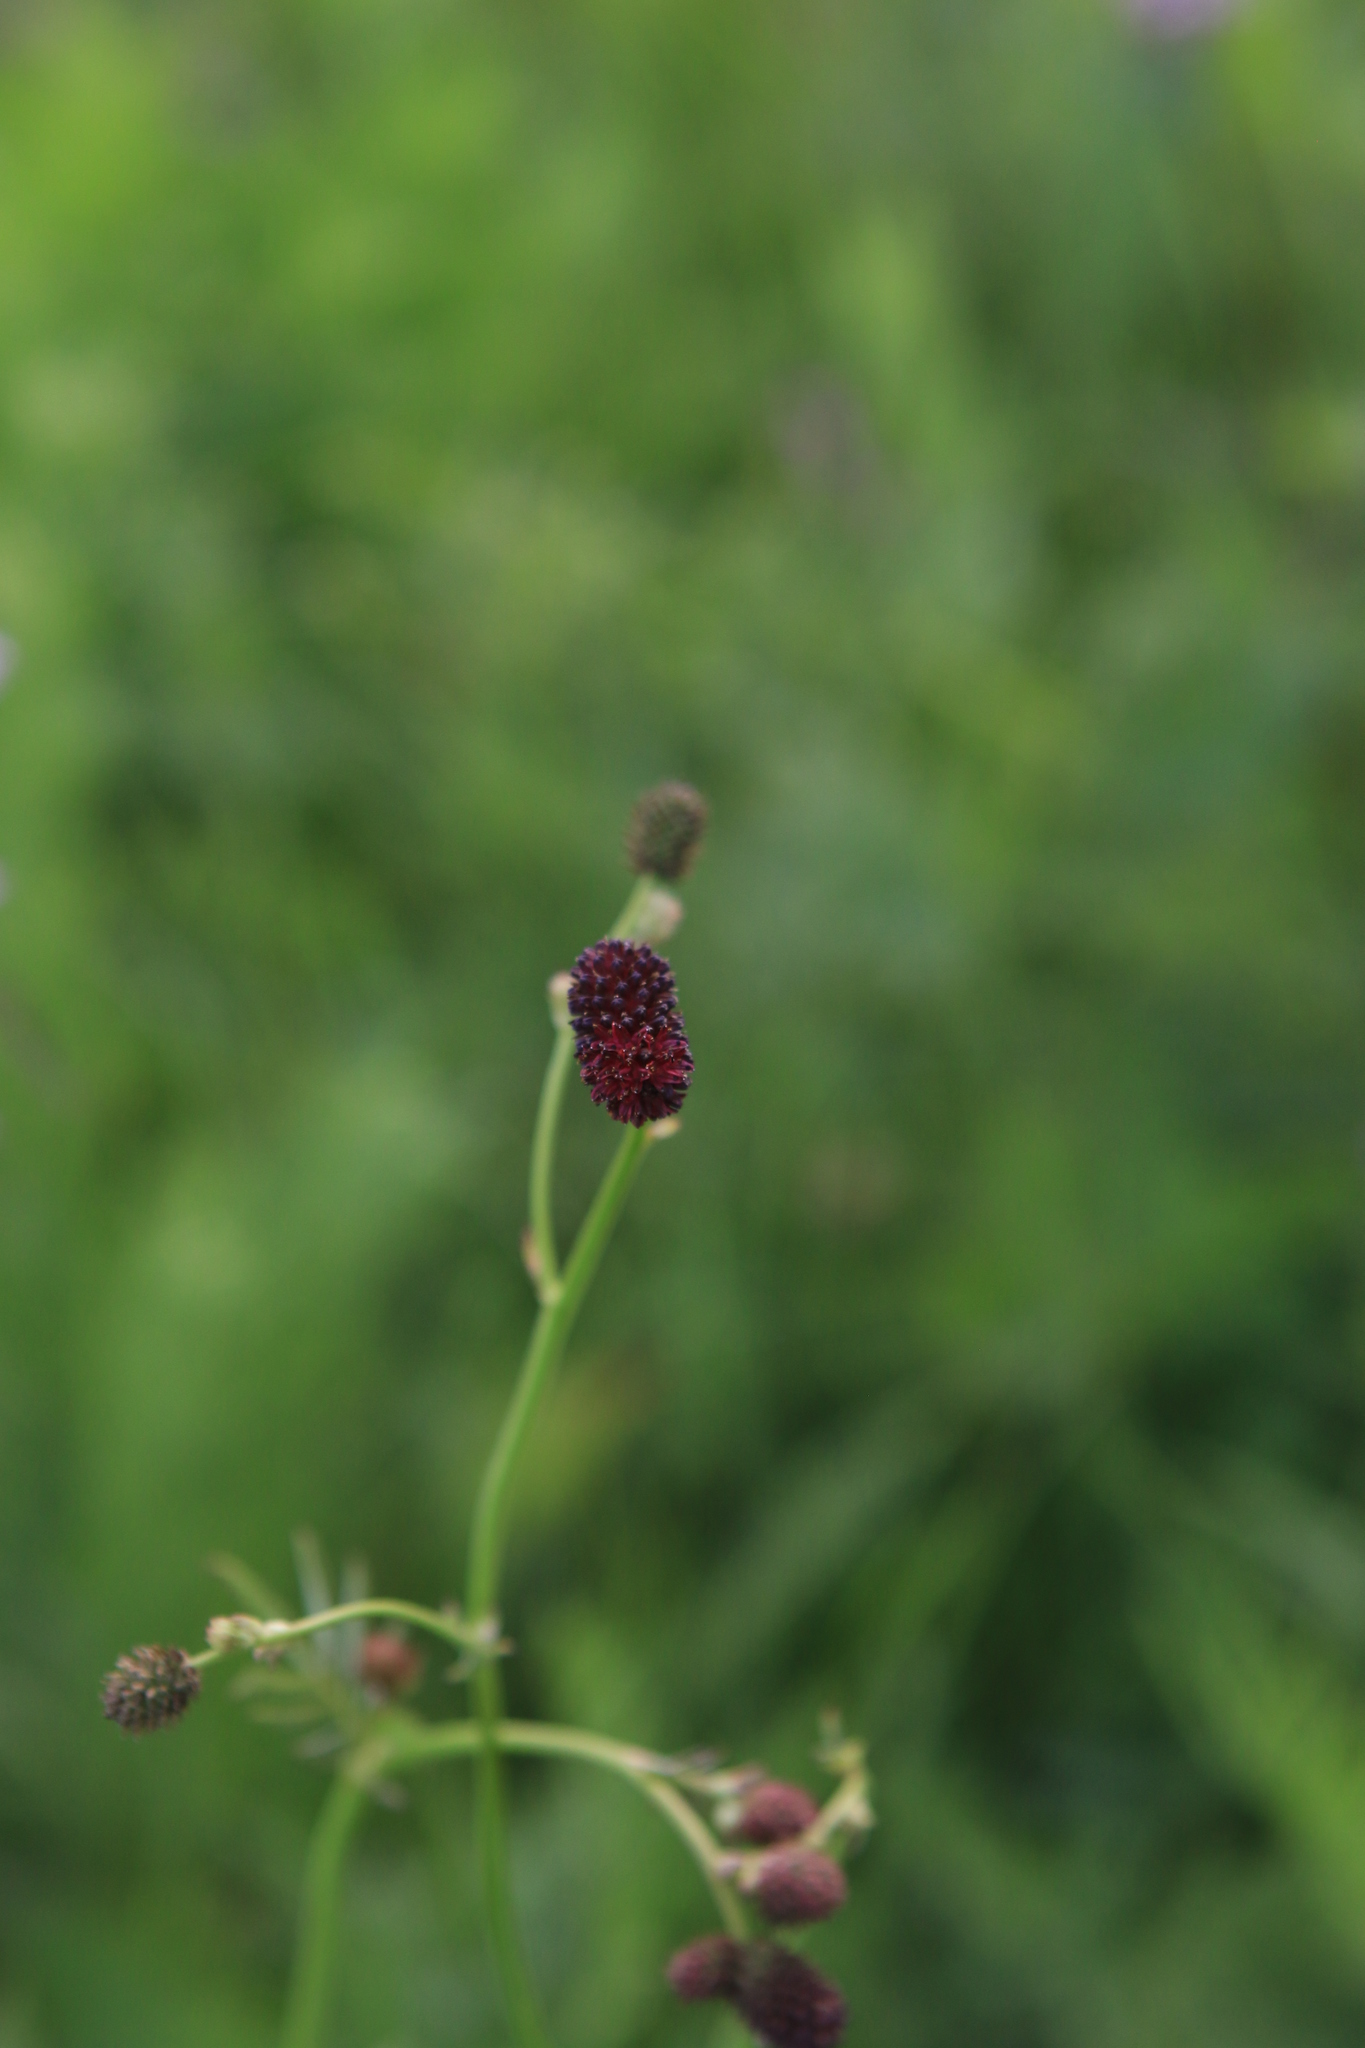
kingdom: Plantae
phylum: Tracheophyta
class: Magnoliopsida
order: Rosales
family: Rosaceae
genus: Sanguisorba
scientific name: Sanguisorba officinalis
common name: Great burnet
